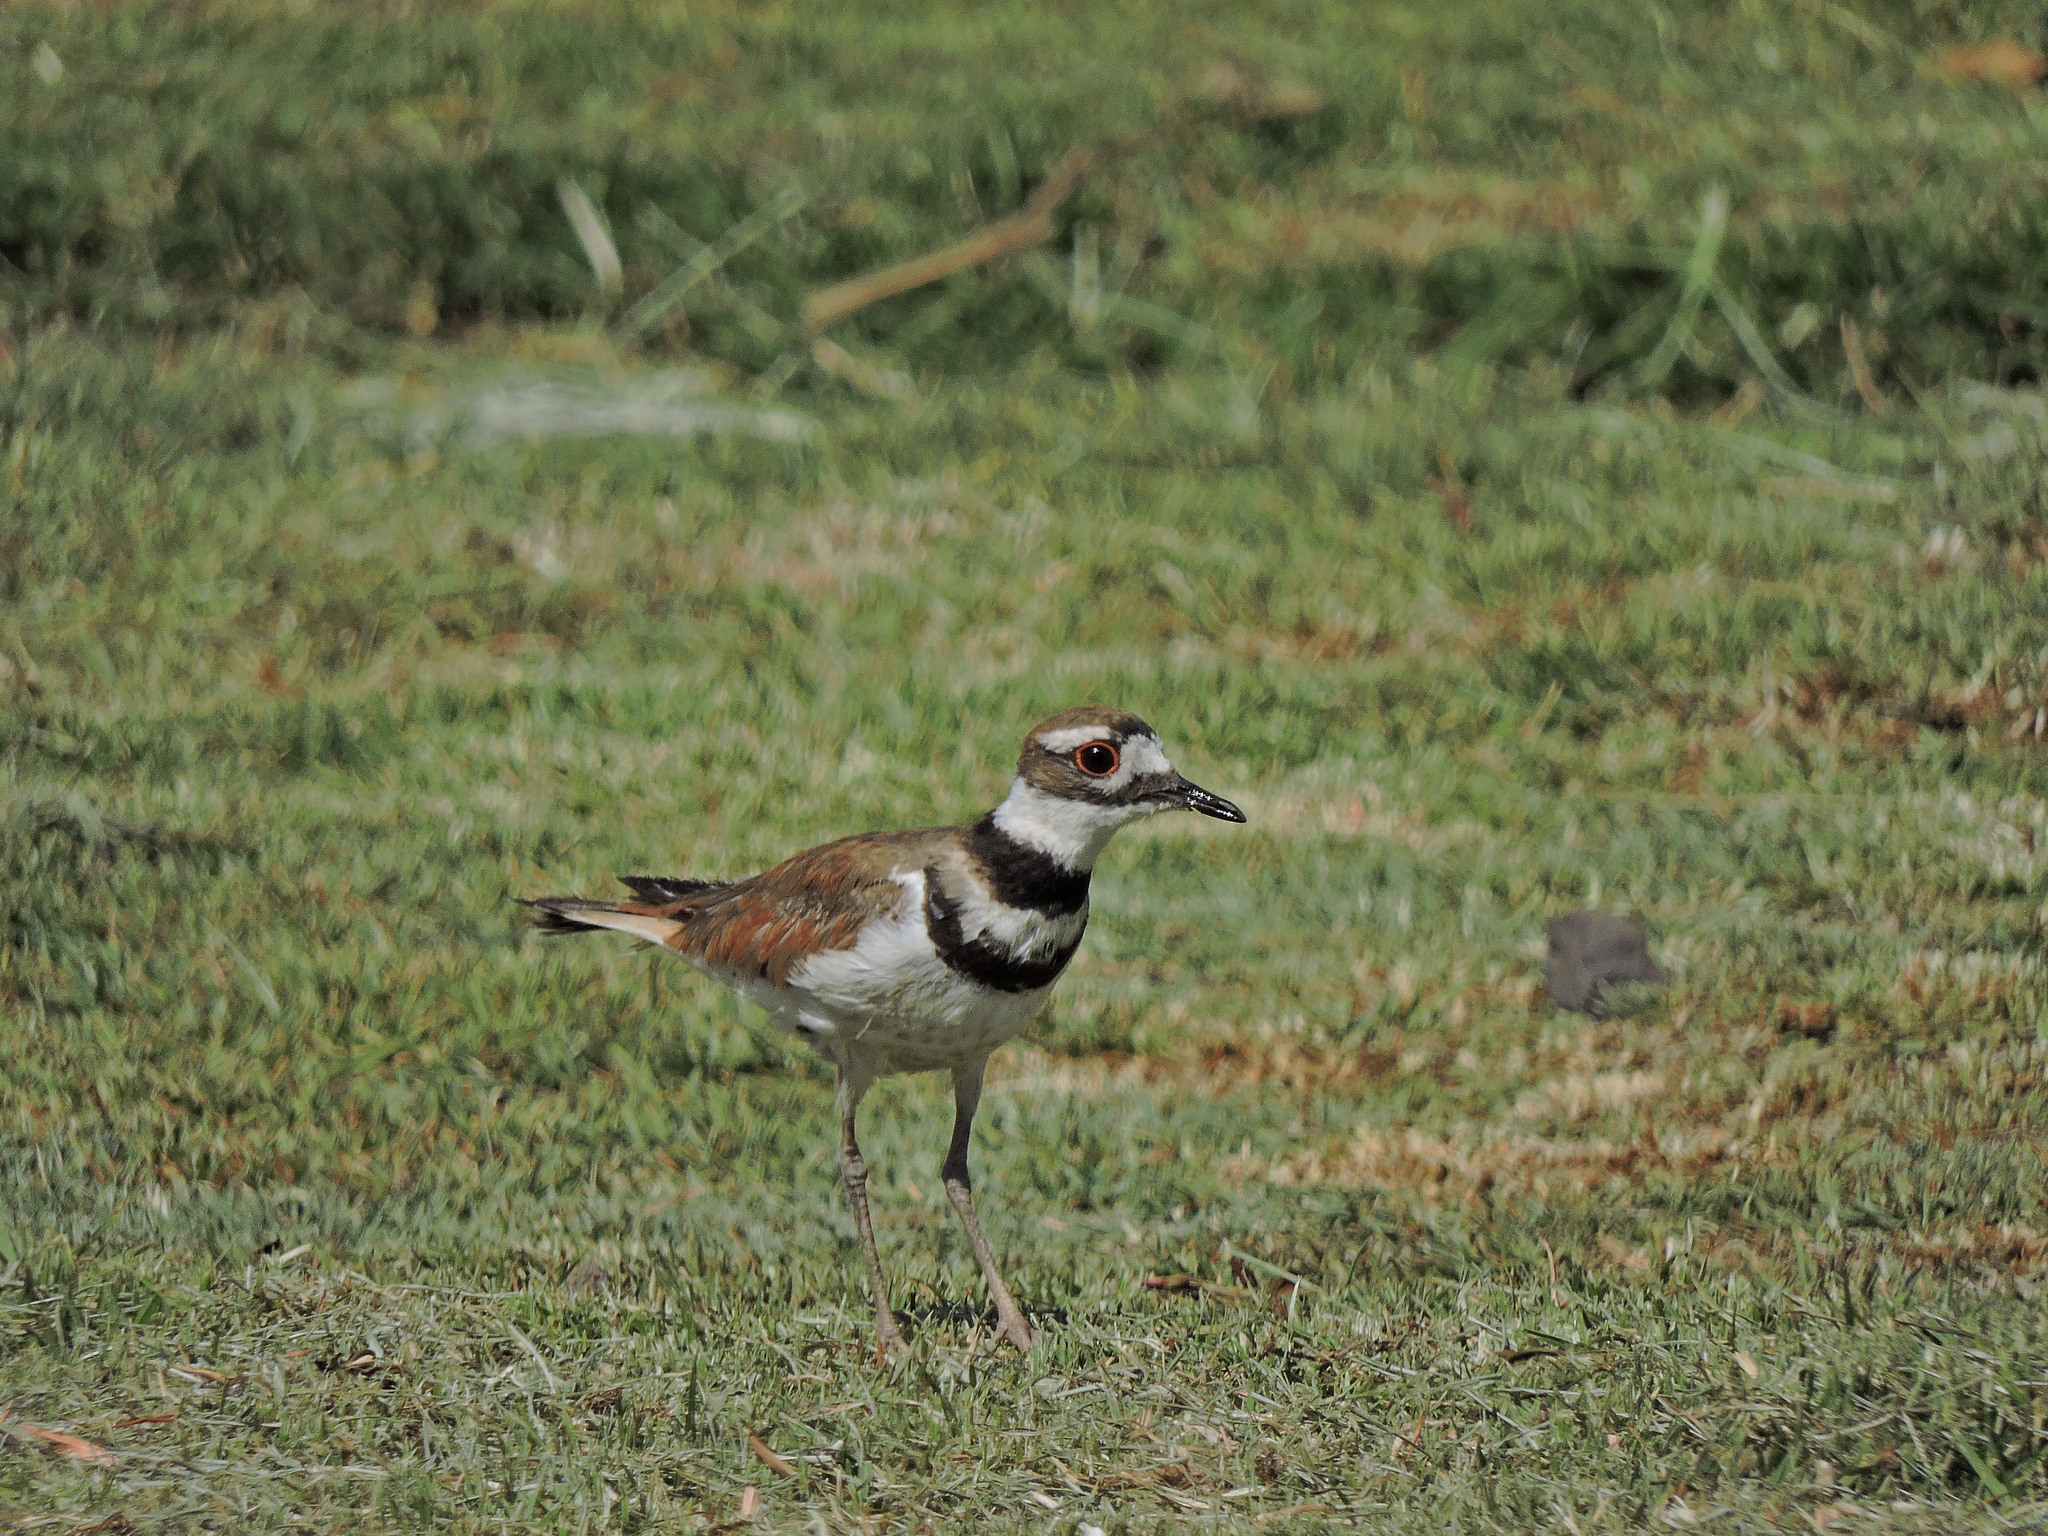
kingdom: Animalia
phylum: Chordata
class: Aves
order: Charadriiformes
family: Charadriidae
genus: Charadrius
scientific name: Charadrius vociferus
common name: Killdeer
